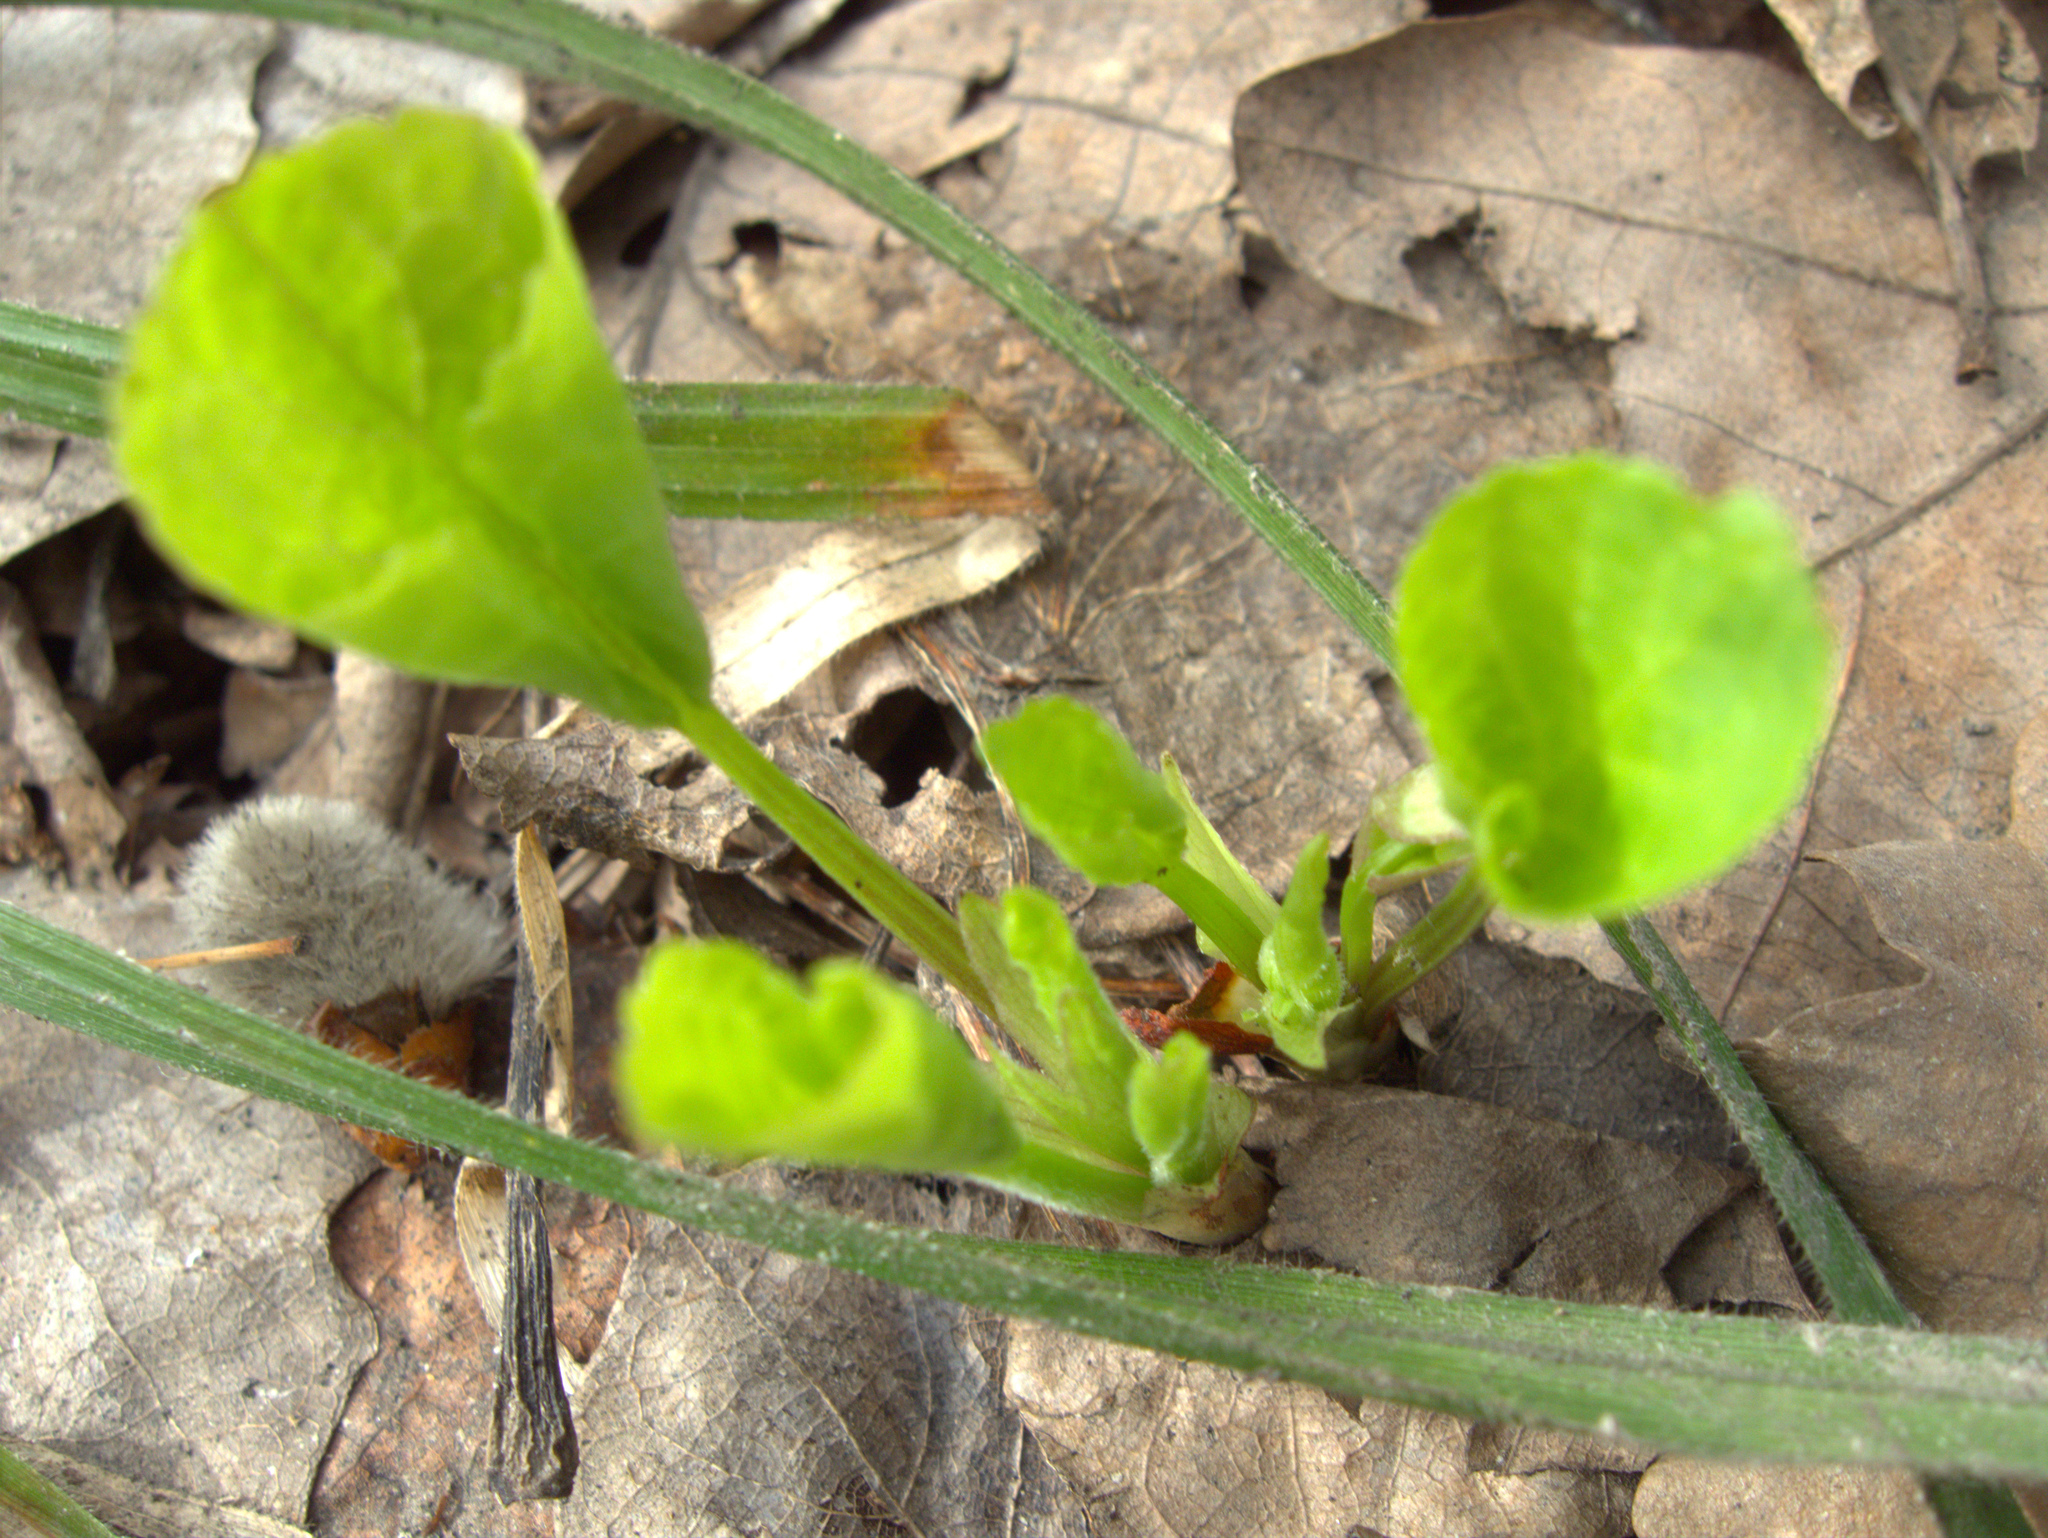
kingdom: Plantae
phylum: Tracheophyta
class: Magnoliopsida
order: Malpighiales
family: Violaceae
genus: Viola
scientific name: Viola mirabilis
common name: Wonder violet
